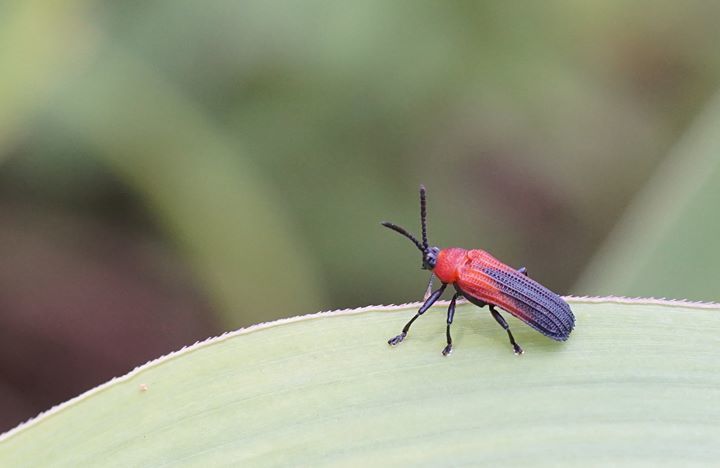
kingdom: Animalia
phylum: Arthropoda
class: Insecta
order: Coleoptera
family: Chrysomelidae
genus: Chalepus
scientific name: Chalepus sanguinicollis
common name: Red-shouldered leaf beetle
